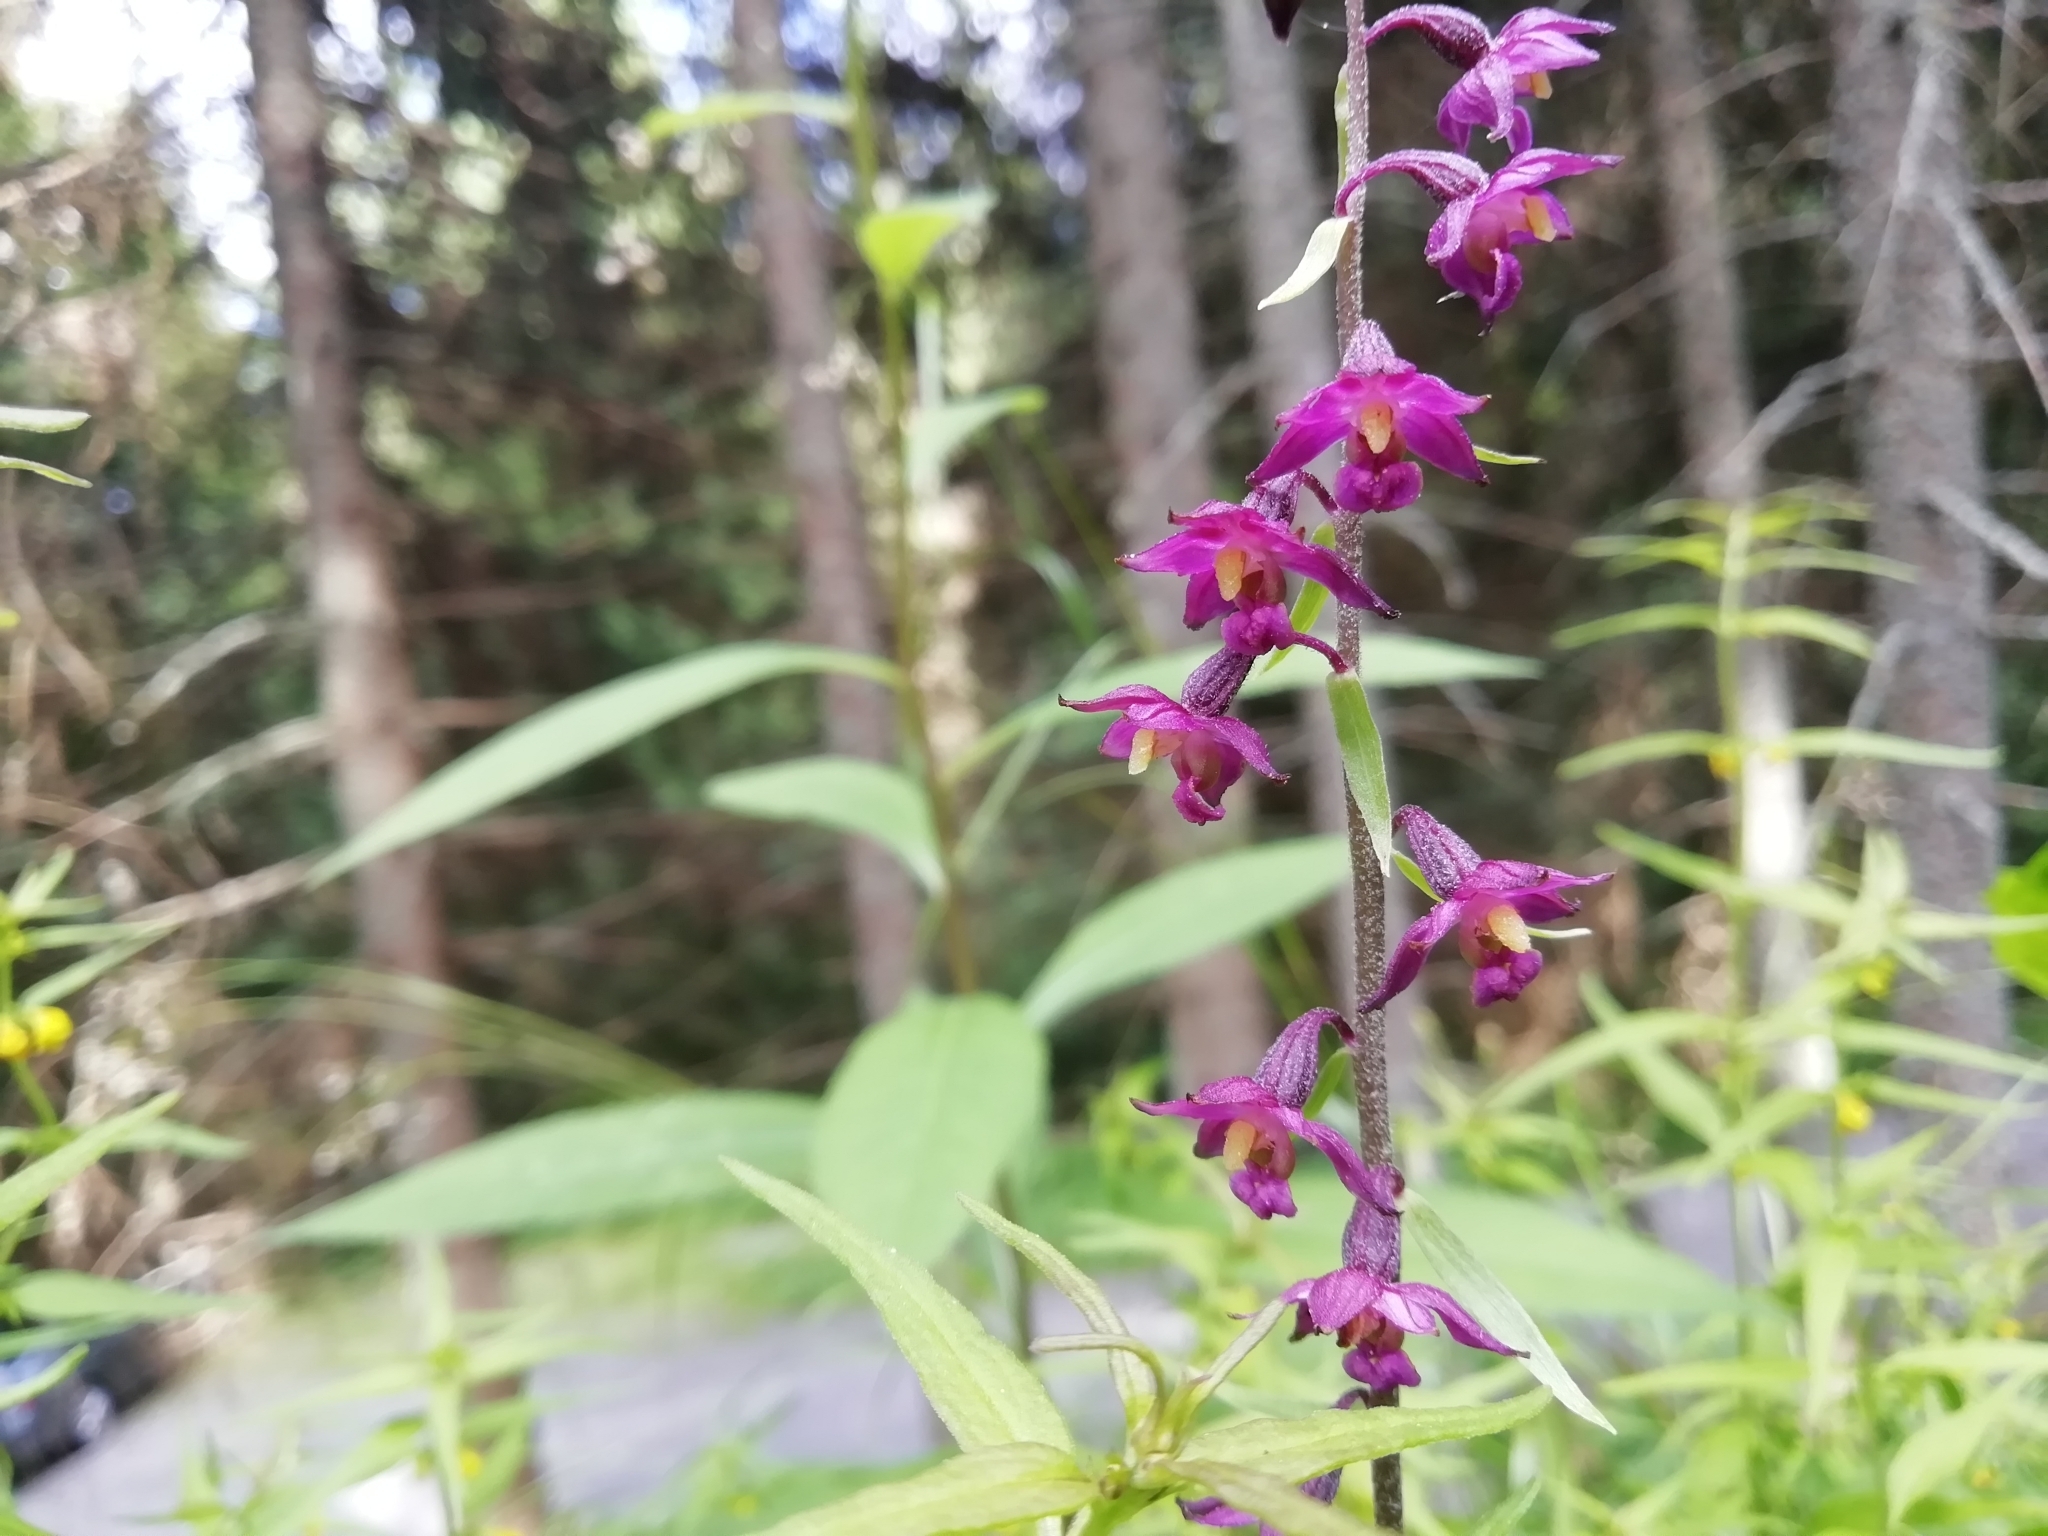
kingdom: Plantae
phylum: Tracheophyta
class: Liliopsida
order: Asparagales
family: Orchidaceae
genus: Epipactis
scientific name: Epipactis atrorubens
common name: Dark-red helleborine
